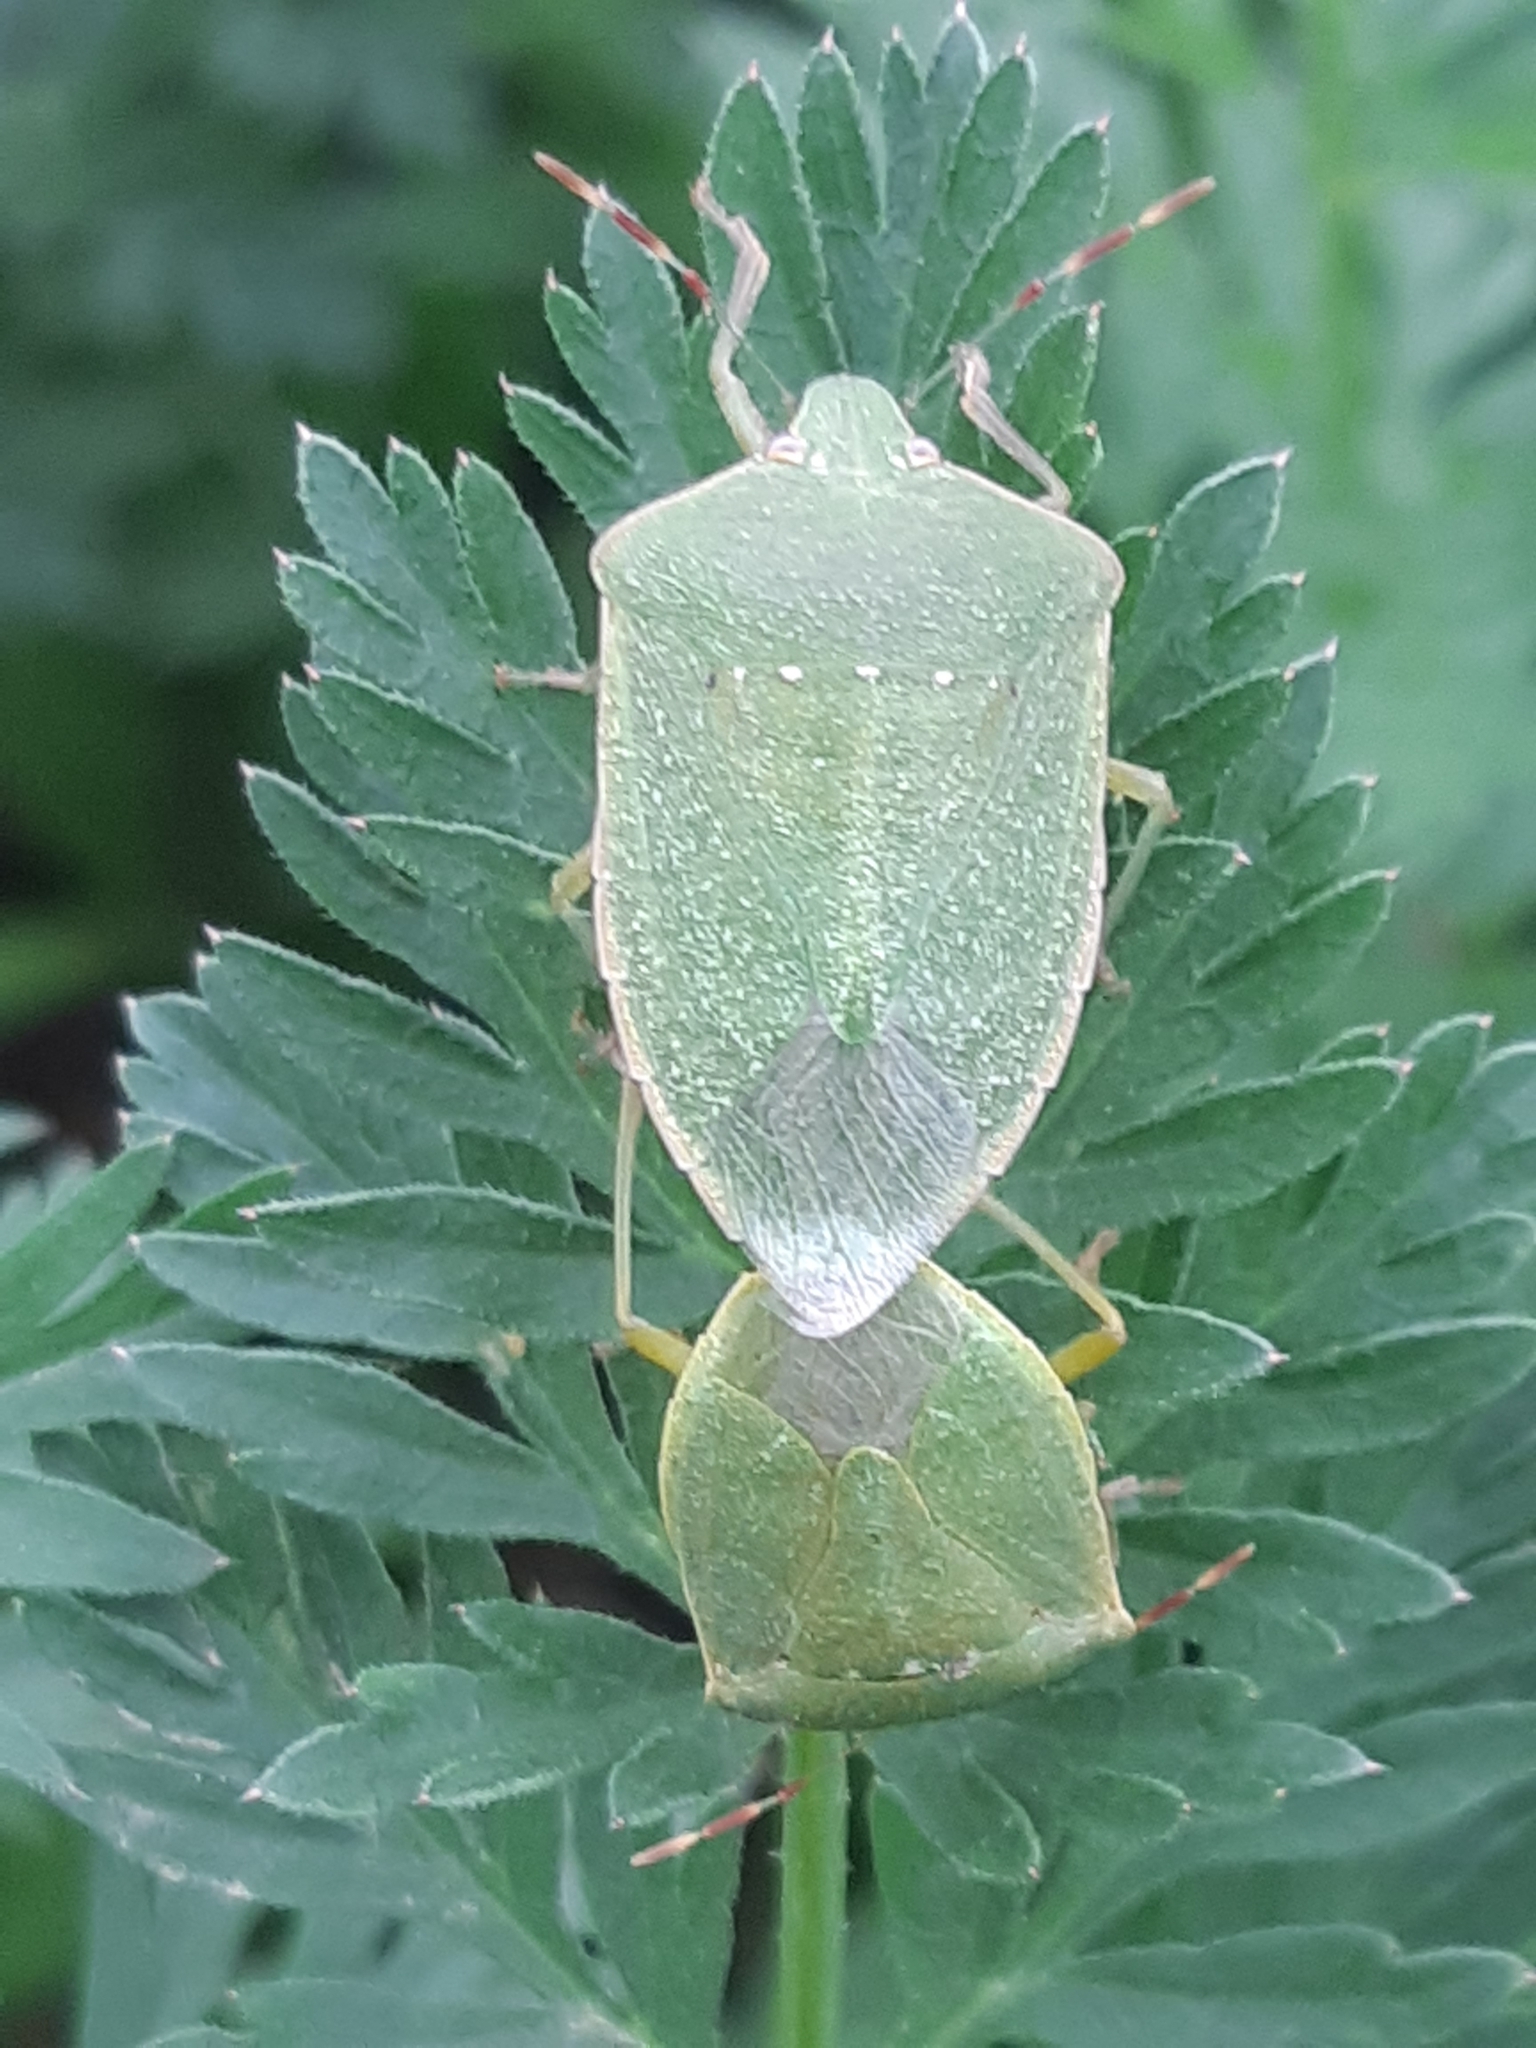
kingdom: Animalia
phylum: Arthropoda
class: Insecta
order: Hemiptera
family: Pentatomidae
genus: Nezara
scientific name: Nezara viridula
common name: Southern green stink bug
